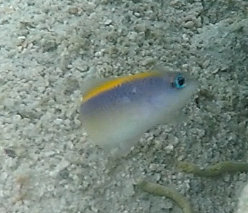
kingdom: Animalia
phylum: Chordata
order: Perciformes
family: Pseudochromidae
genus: Pseudochromis
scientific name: Pseudochromis flavivertex
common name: Sunrise dottyback
